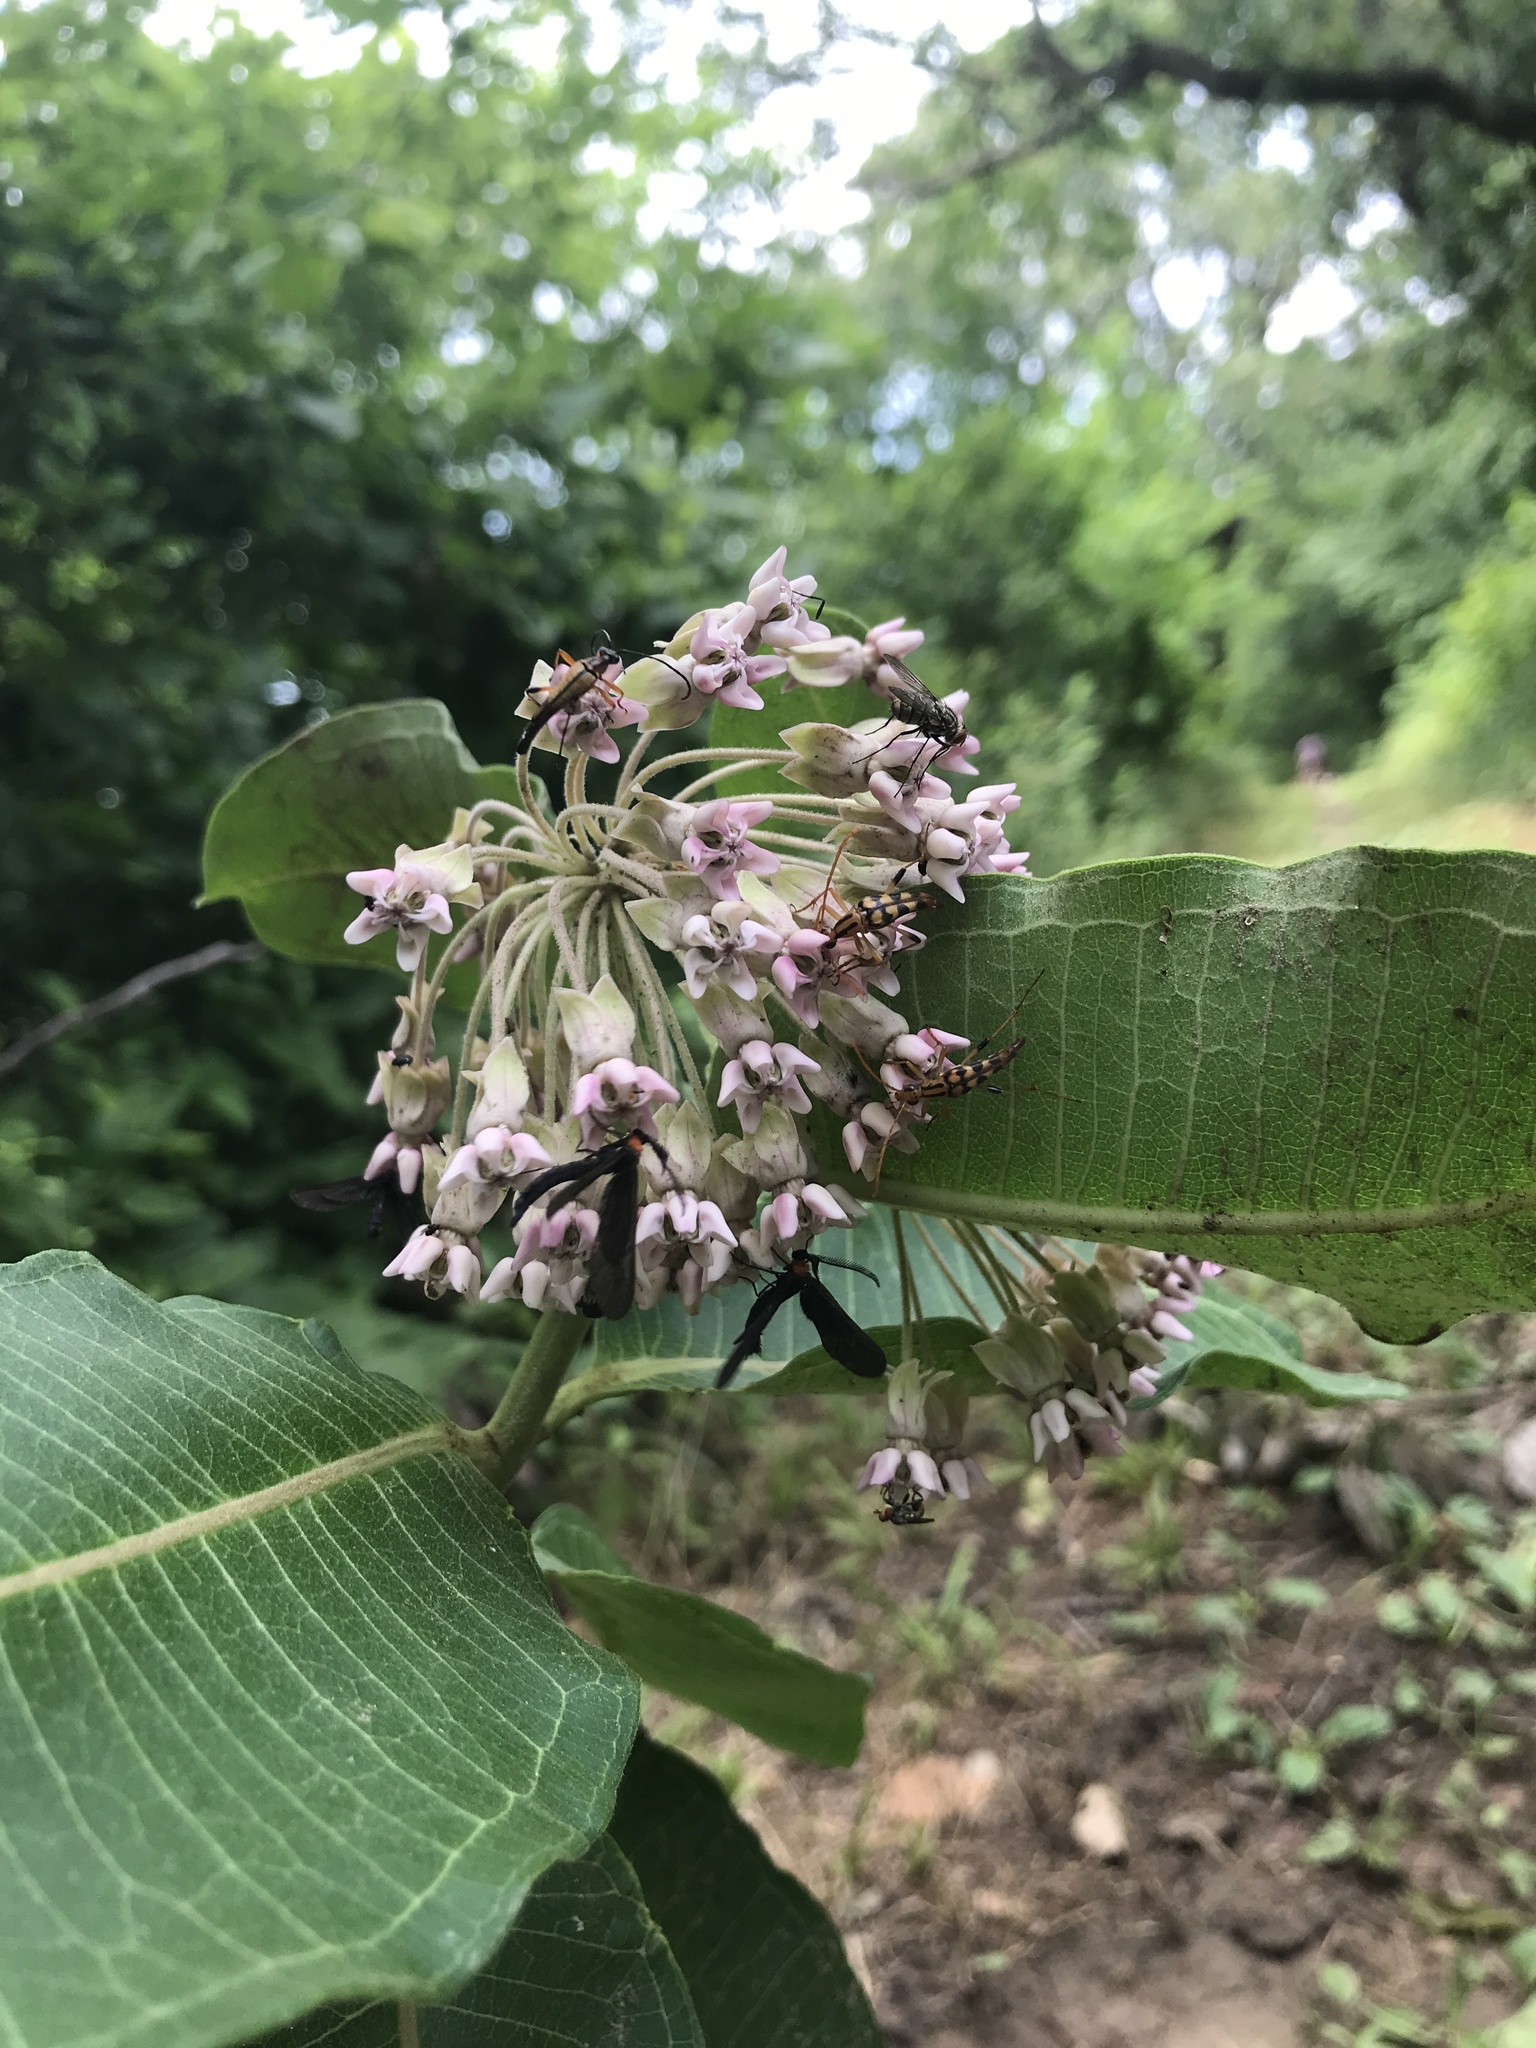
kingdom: Plantae
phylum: Tracheophyta
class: Magnoliopsida
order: Gentianales
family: Apocynaceae
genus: Asclepias
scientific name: Asclepias syriaca
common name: Common milkweed
